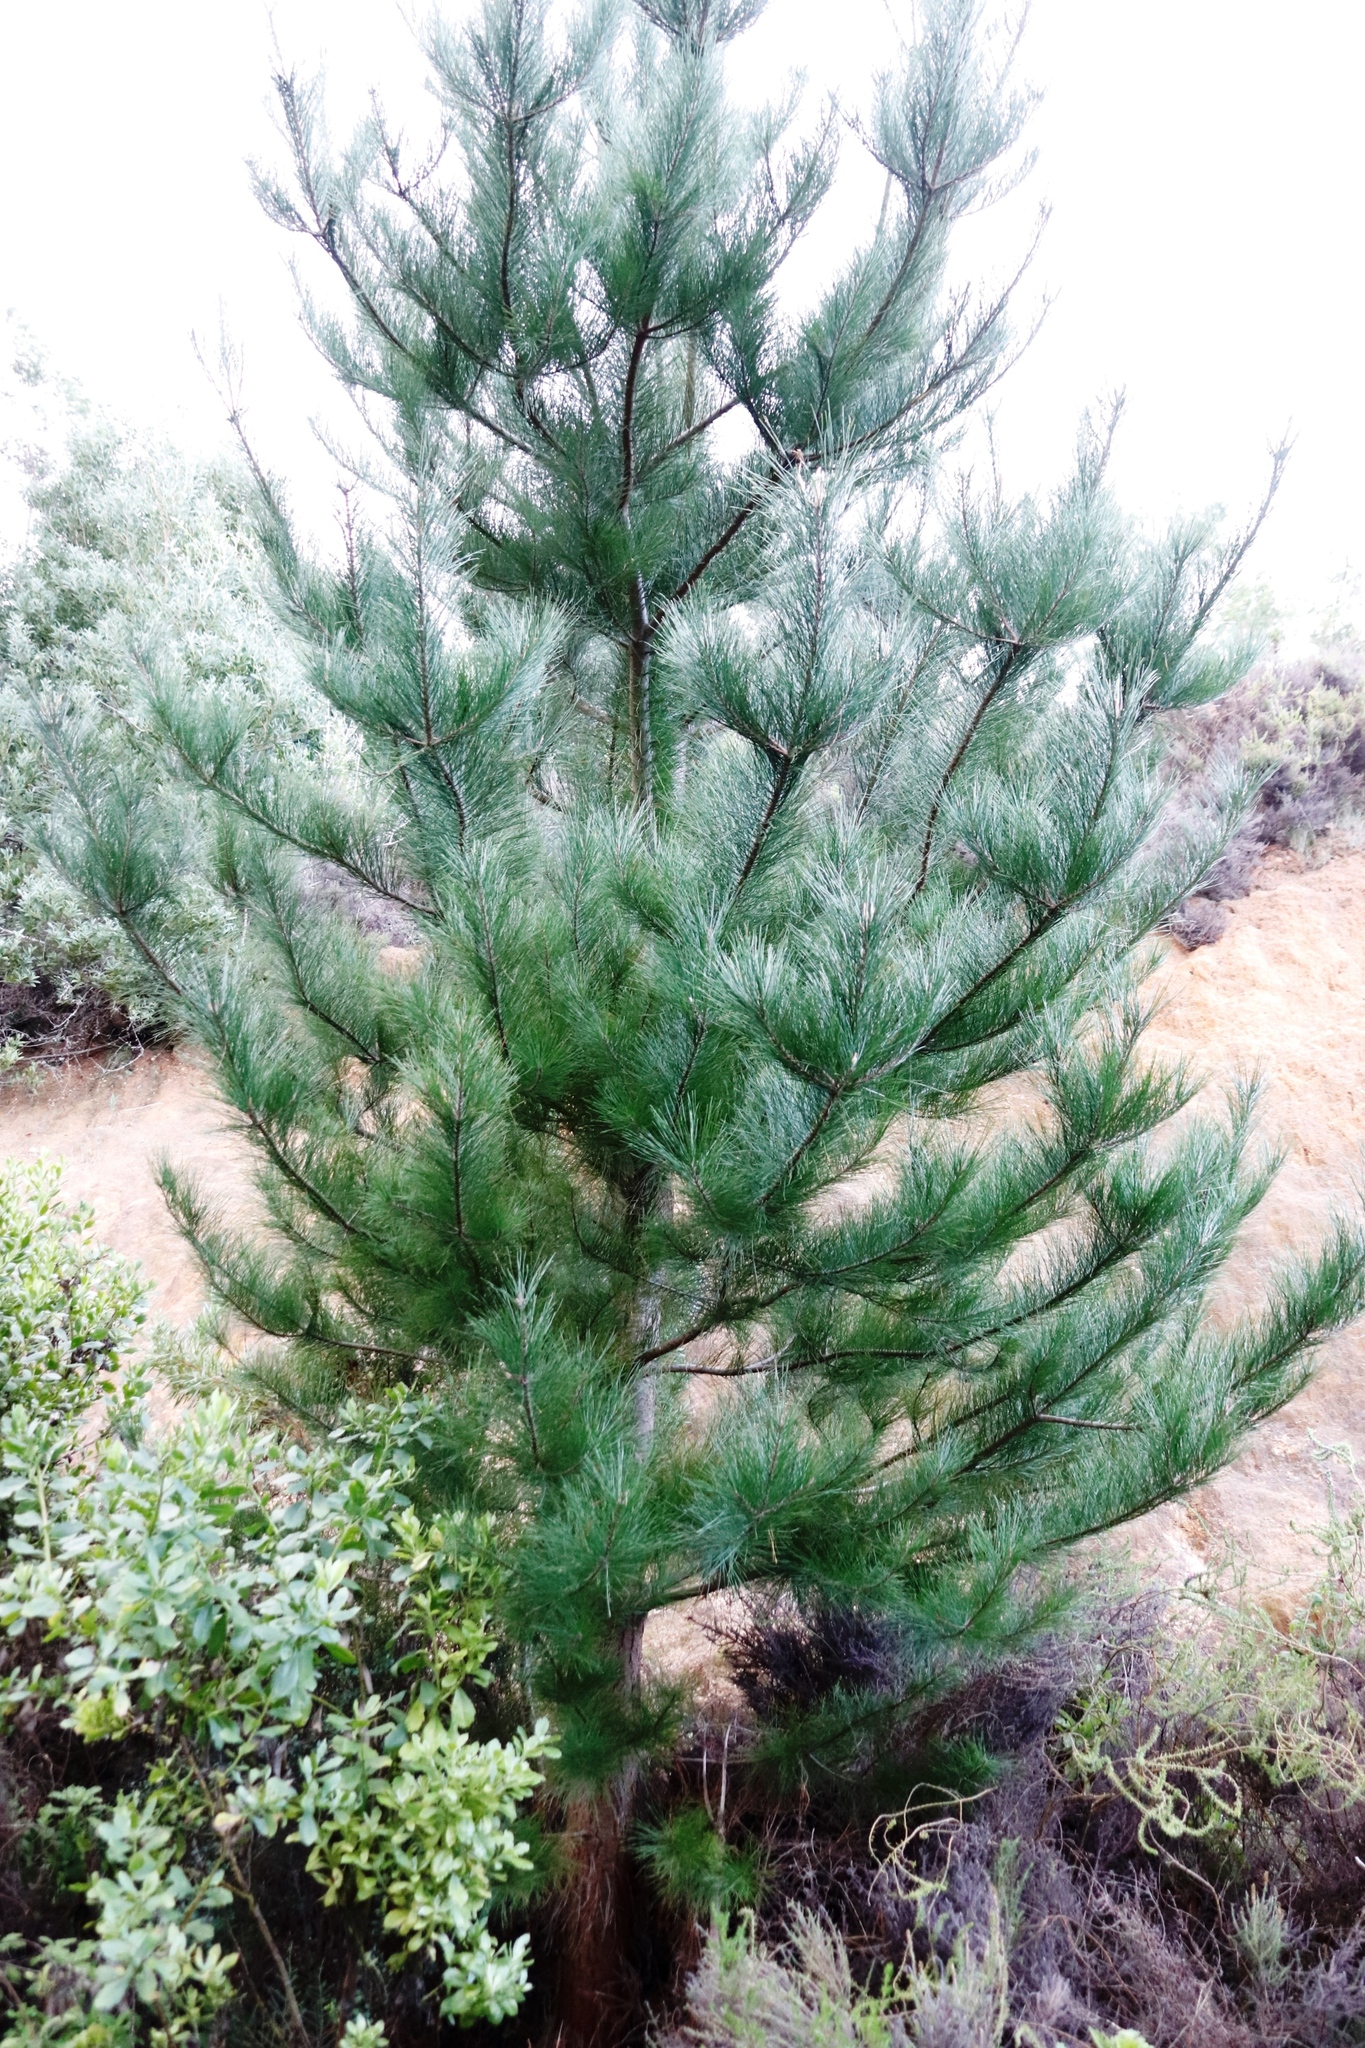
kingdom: Plantae
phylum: Tracheophyta
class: Pinopsida
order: Pinales
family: Pinaceae
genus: Pinus
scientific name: Pinus radiata
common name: Monterey pine
